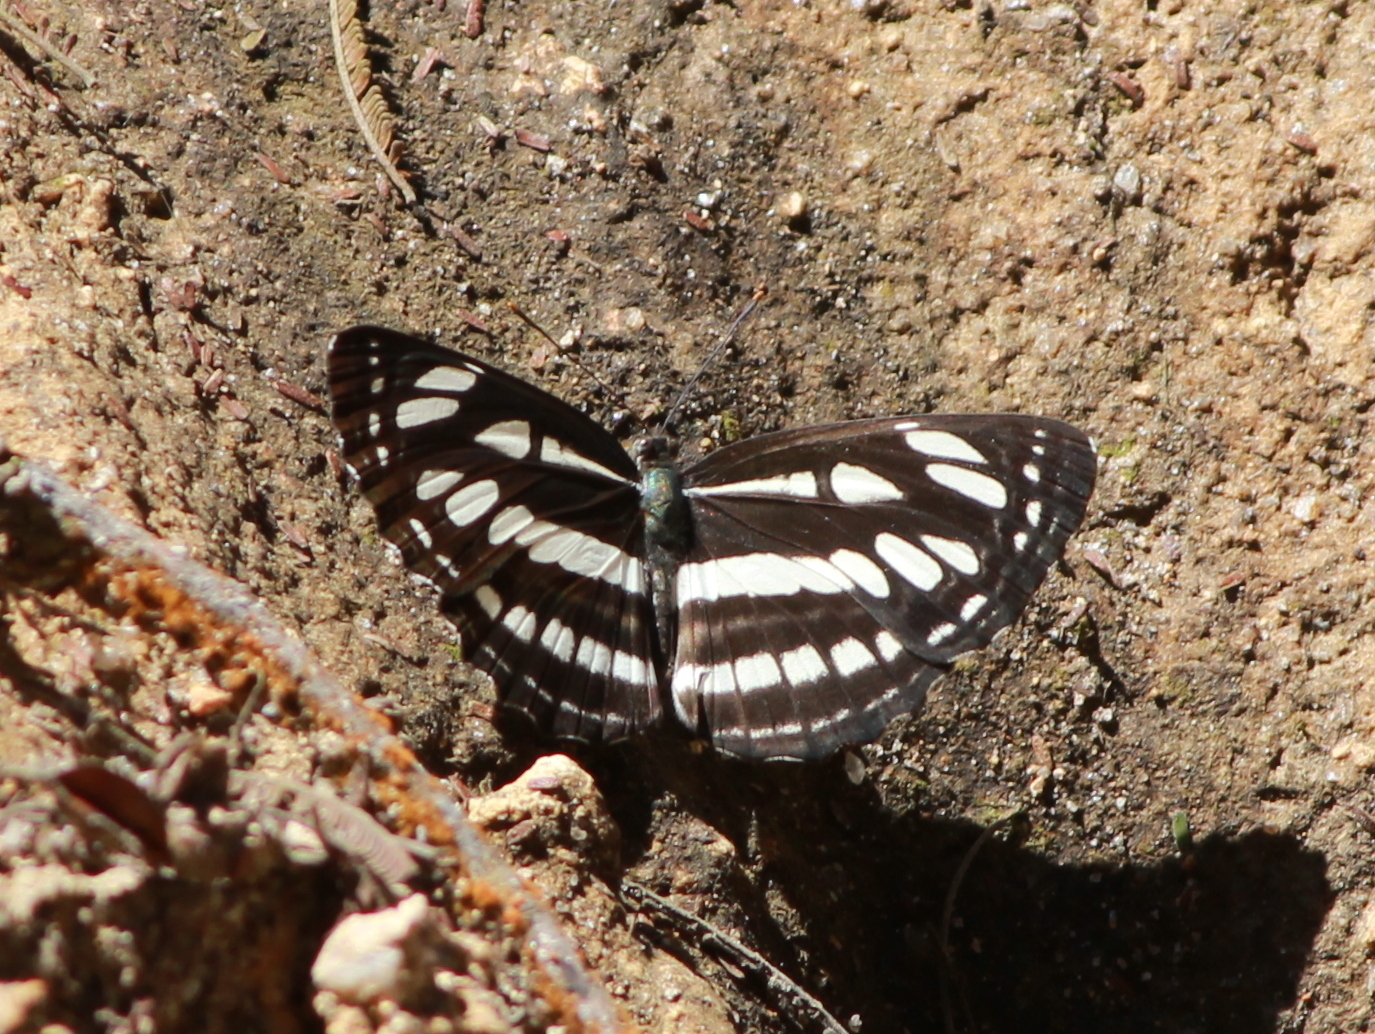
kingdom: Animalia
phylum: Arthropoda
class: Insecta
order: Lepidoptera
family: Nymphalidae
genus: Neptis
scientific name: Neptis hylas
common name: Common sailer
